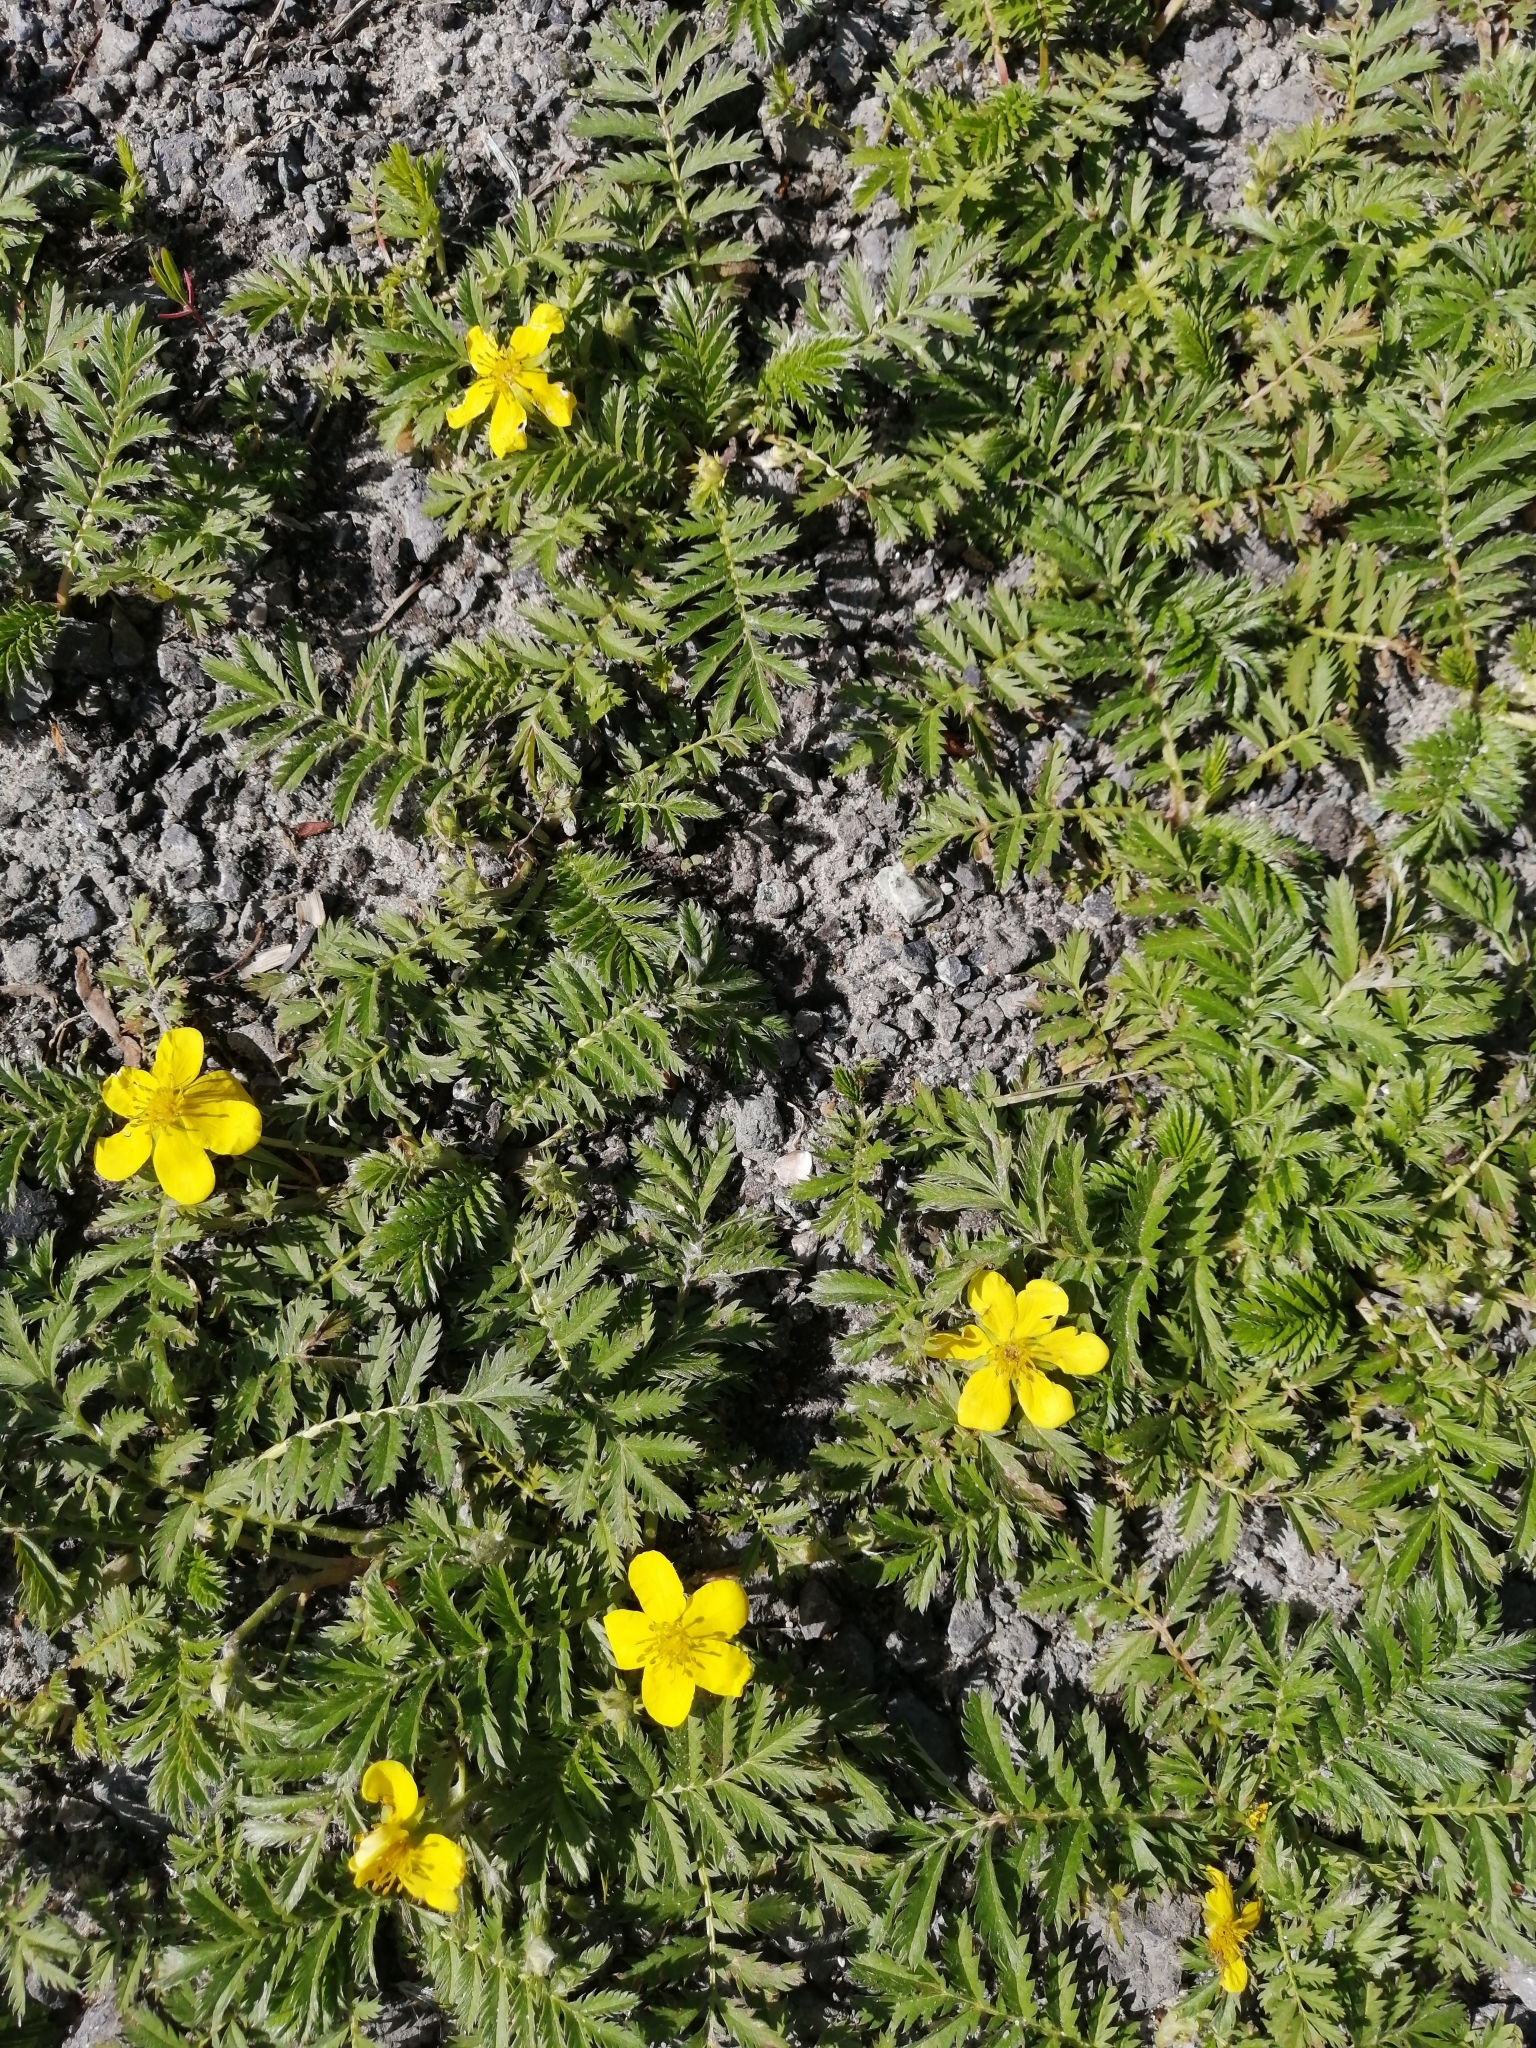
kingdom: Plantae
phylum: Tracheophyta
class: Magnoliopsida
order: Rosales
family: Rosaceae
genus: Argentina
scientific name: Argentina anserina
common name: Common silverweed
